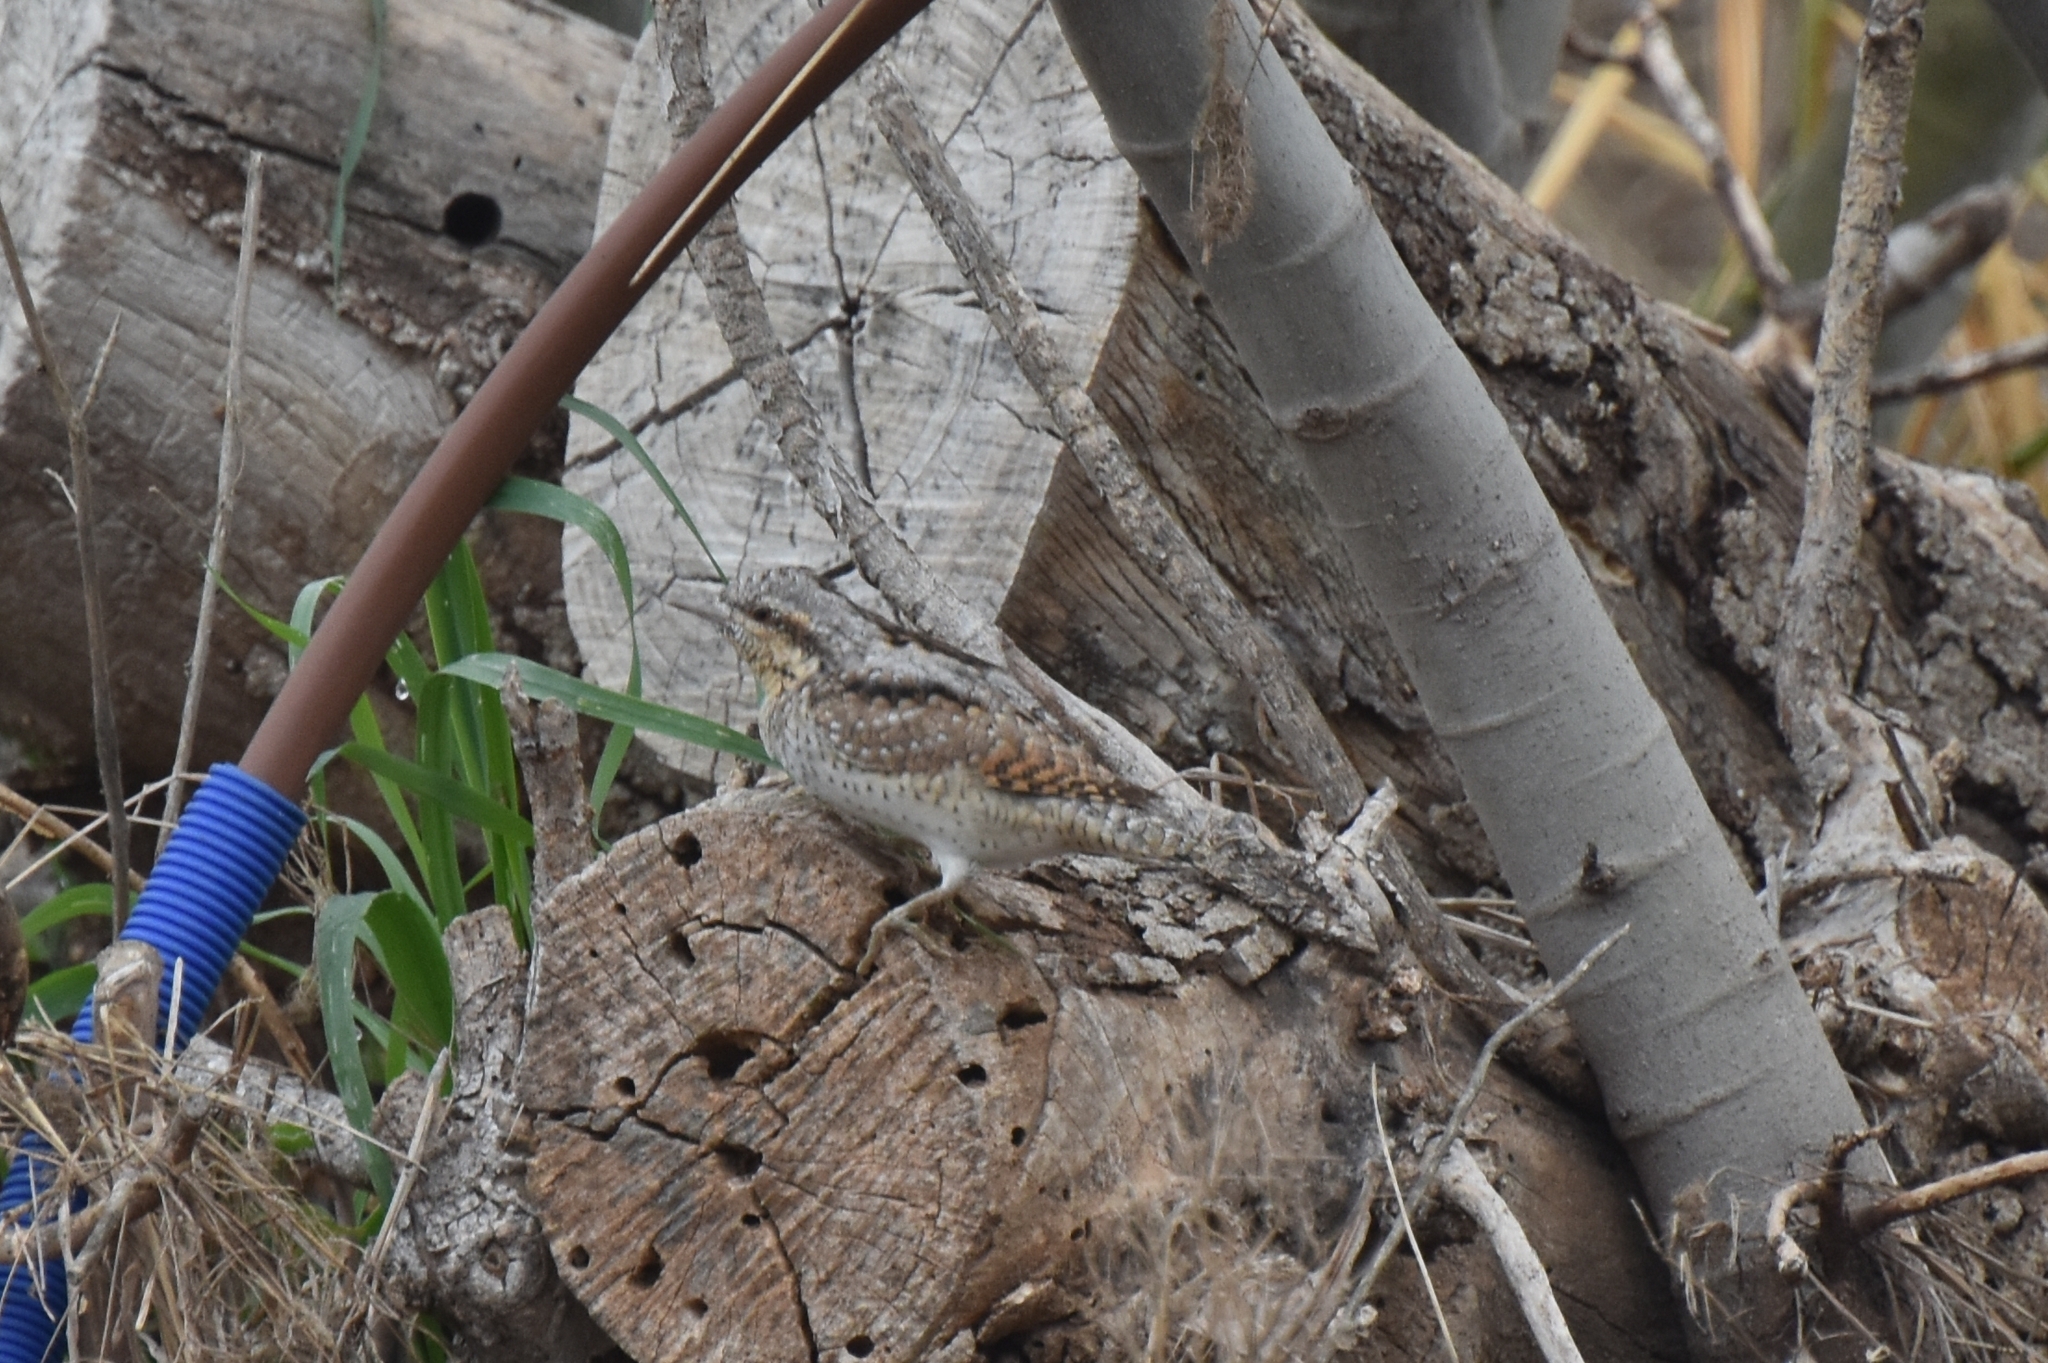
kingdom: Animalia
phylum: Chordata
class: Aves
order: Piciformes
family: Picidae
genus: Jynx
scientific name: Jynx torquilla
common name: Eurasian wryneck
